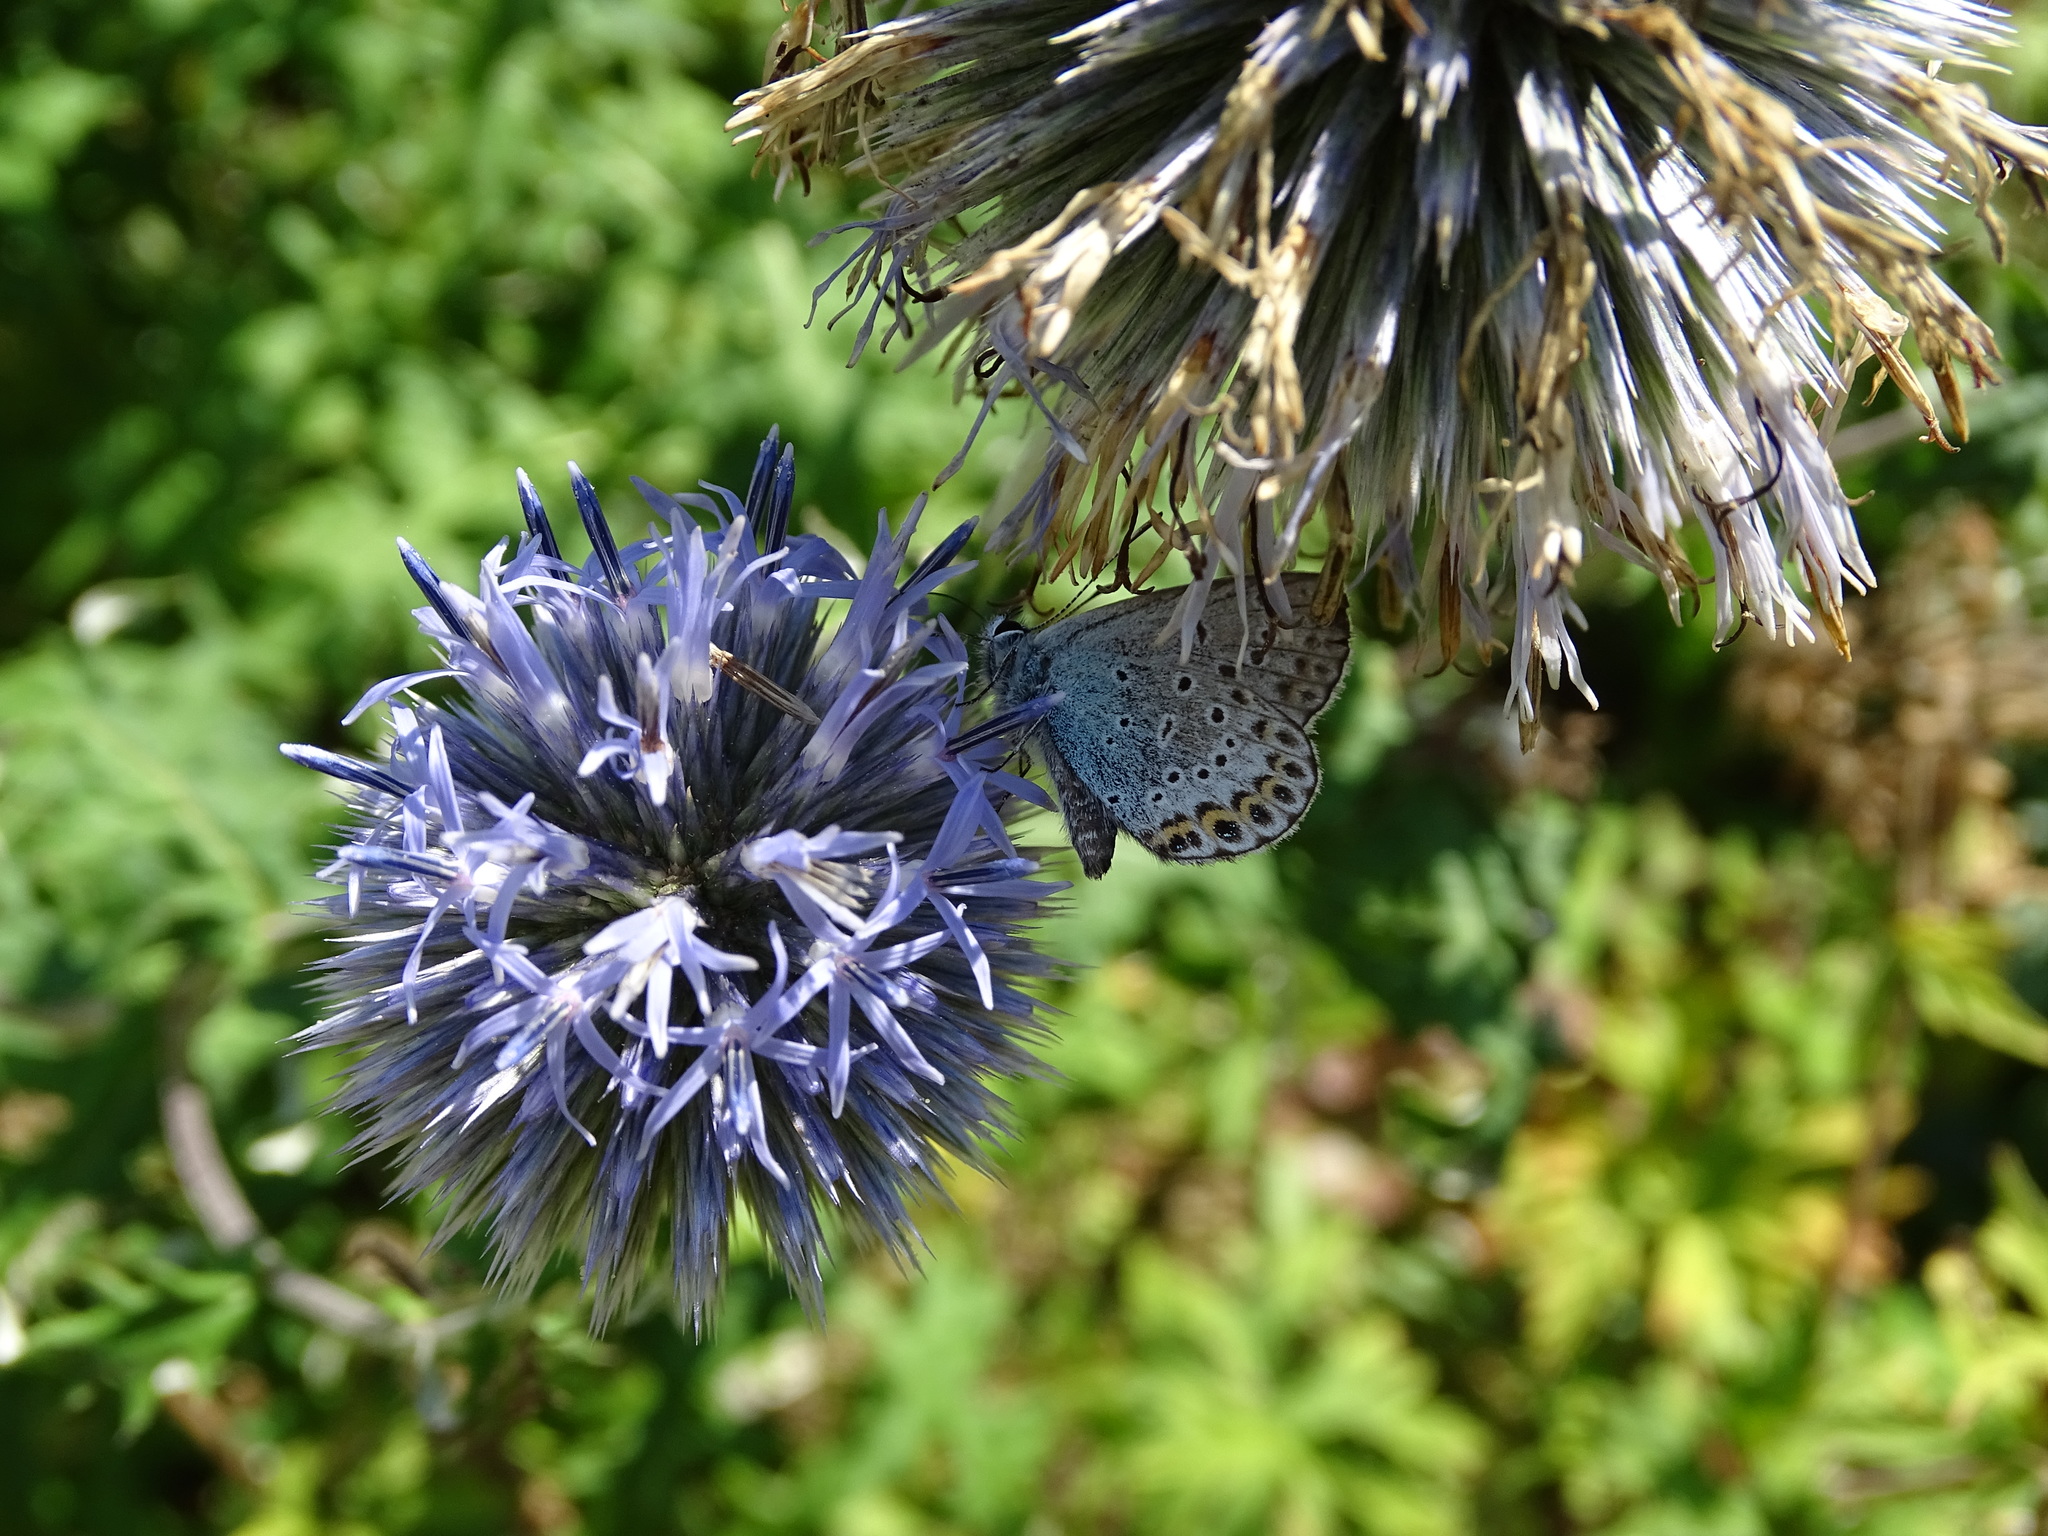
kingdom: Animalia
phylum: Arthropoda
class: Insecta
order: Lepidoptera
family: Lycaenidae
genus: Lycaeides
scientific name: Lycaeides idas
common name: Northern blue
